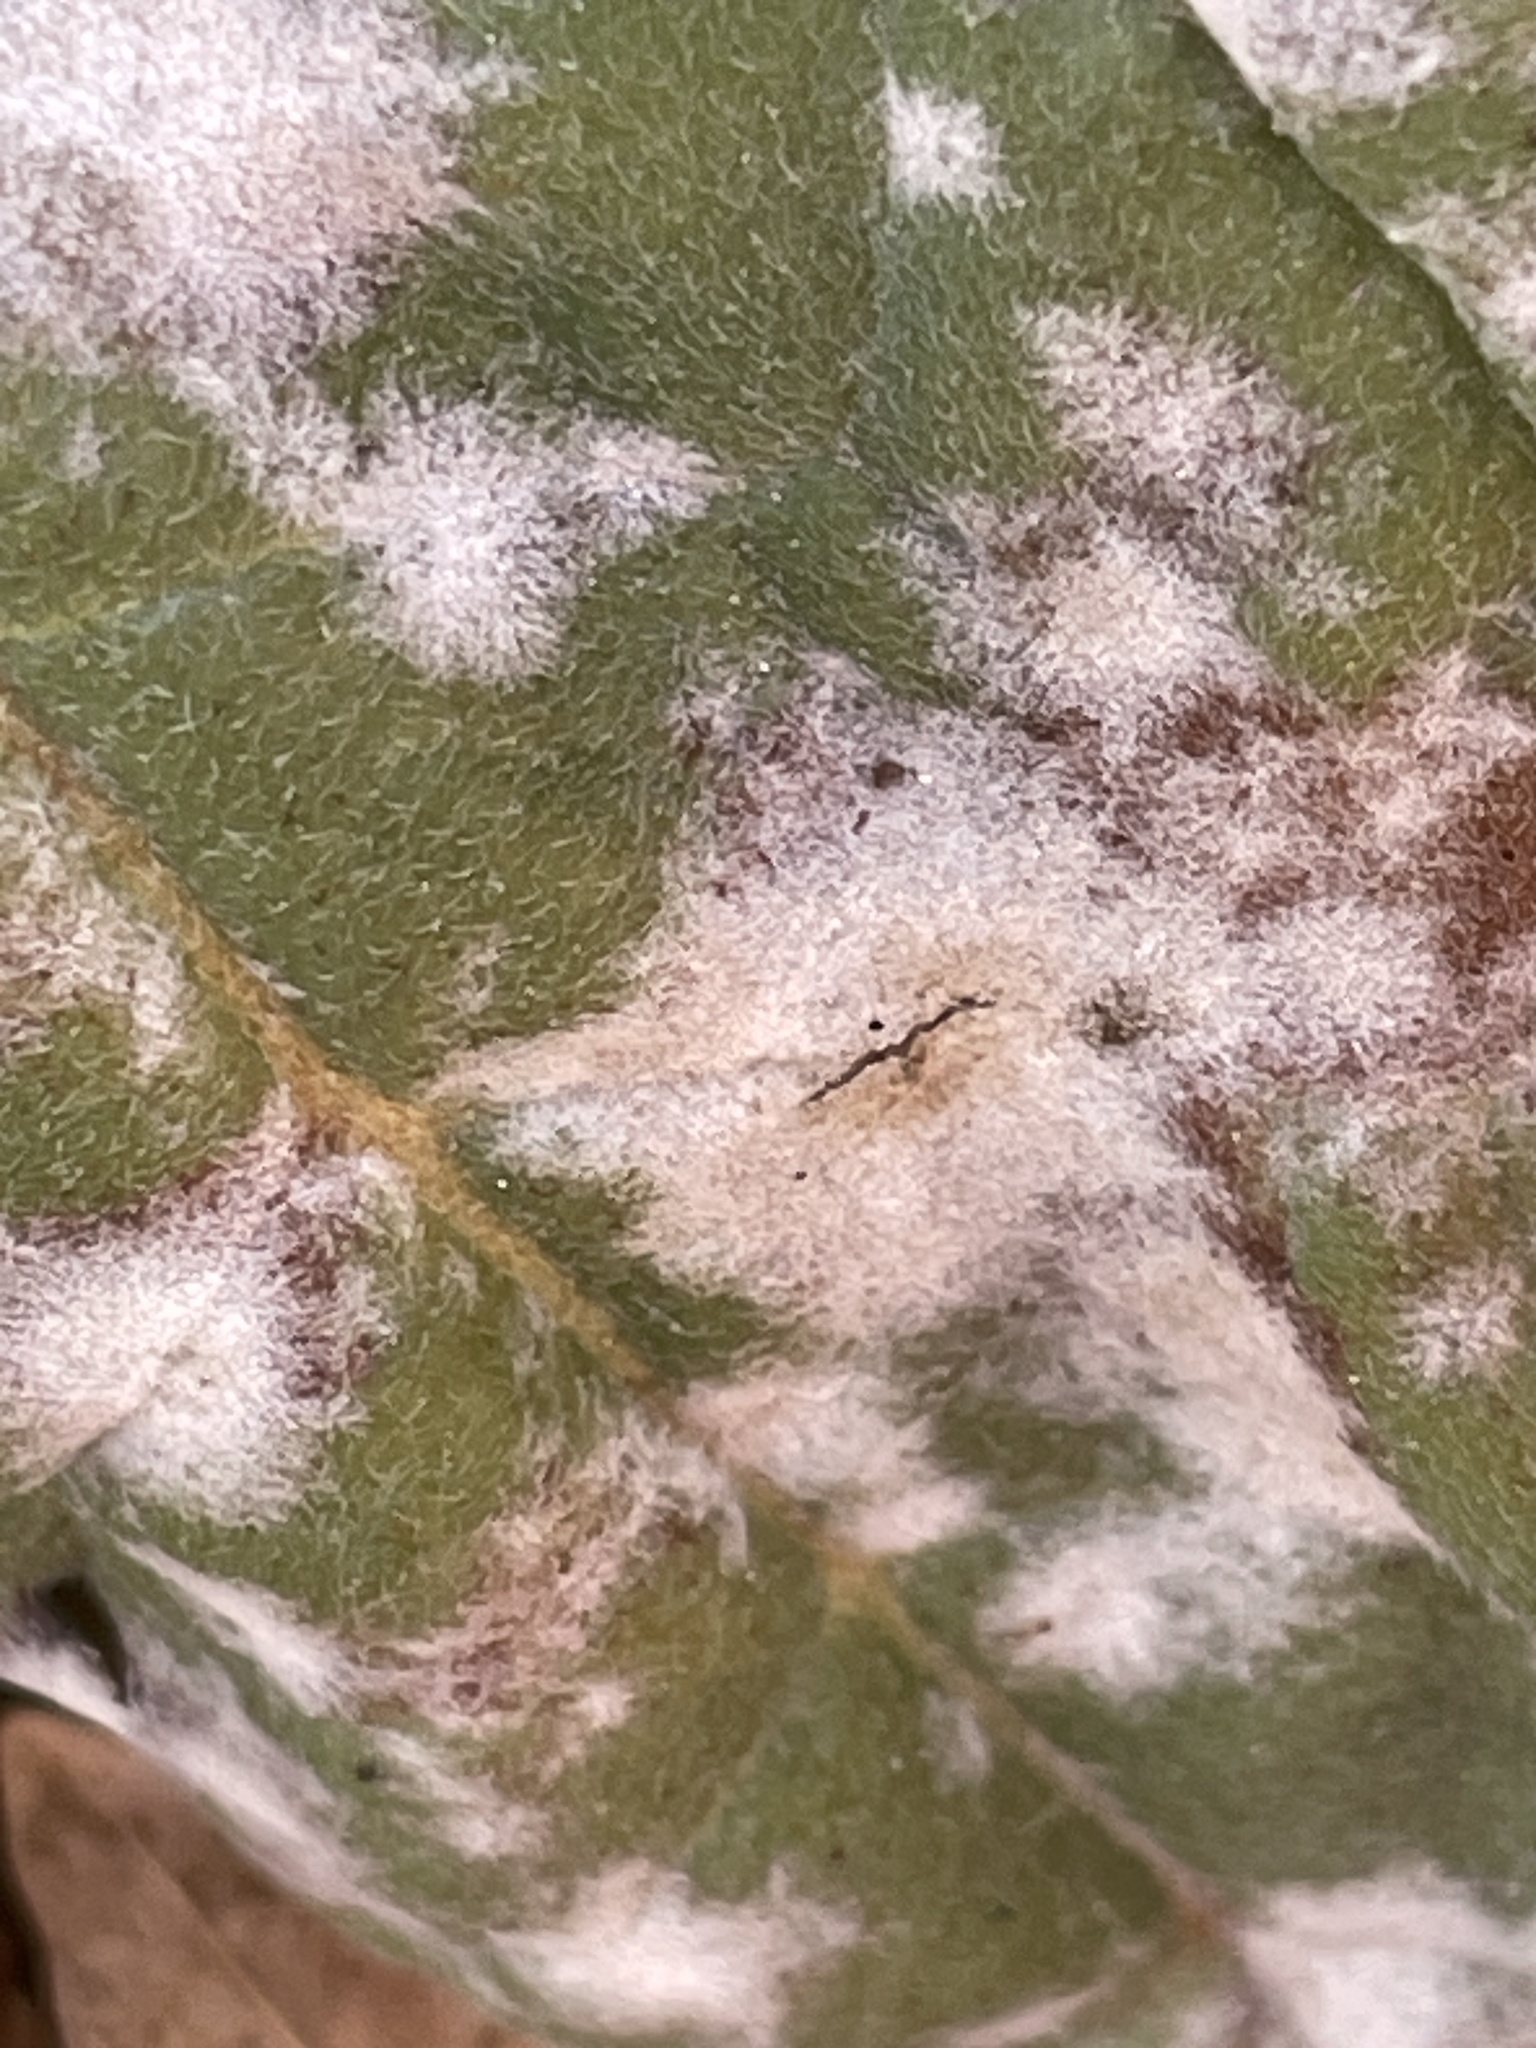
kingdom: Fungi
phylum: Ascomycota
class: Leotiomycetes
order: Helotiales
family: Erysiphaceae
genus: Golovinomyces
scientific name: Golovinomyces cynoglossi
